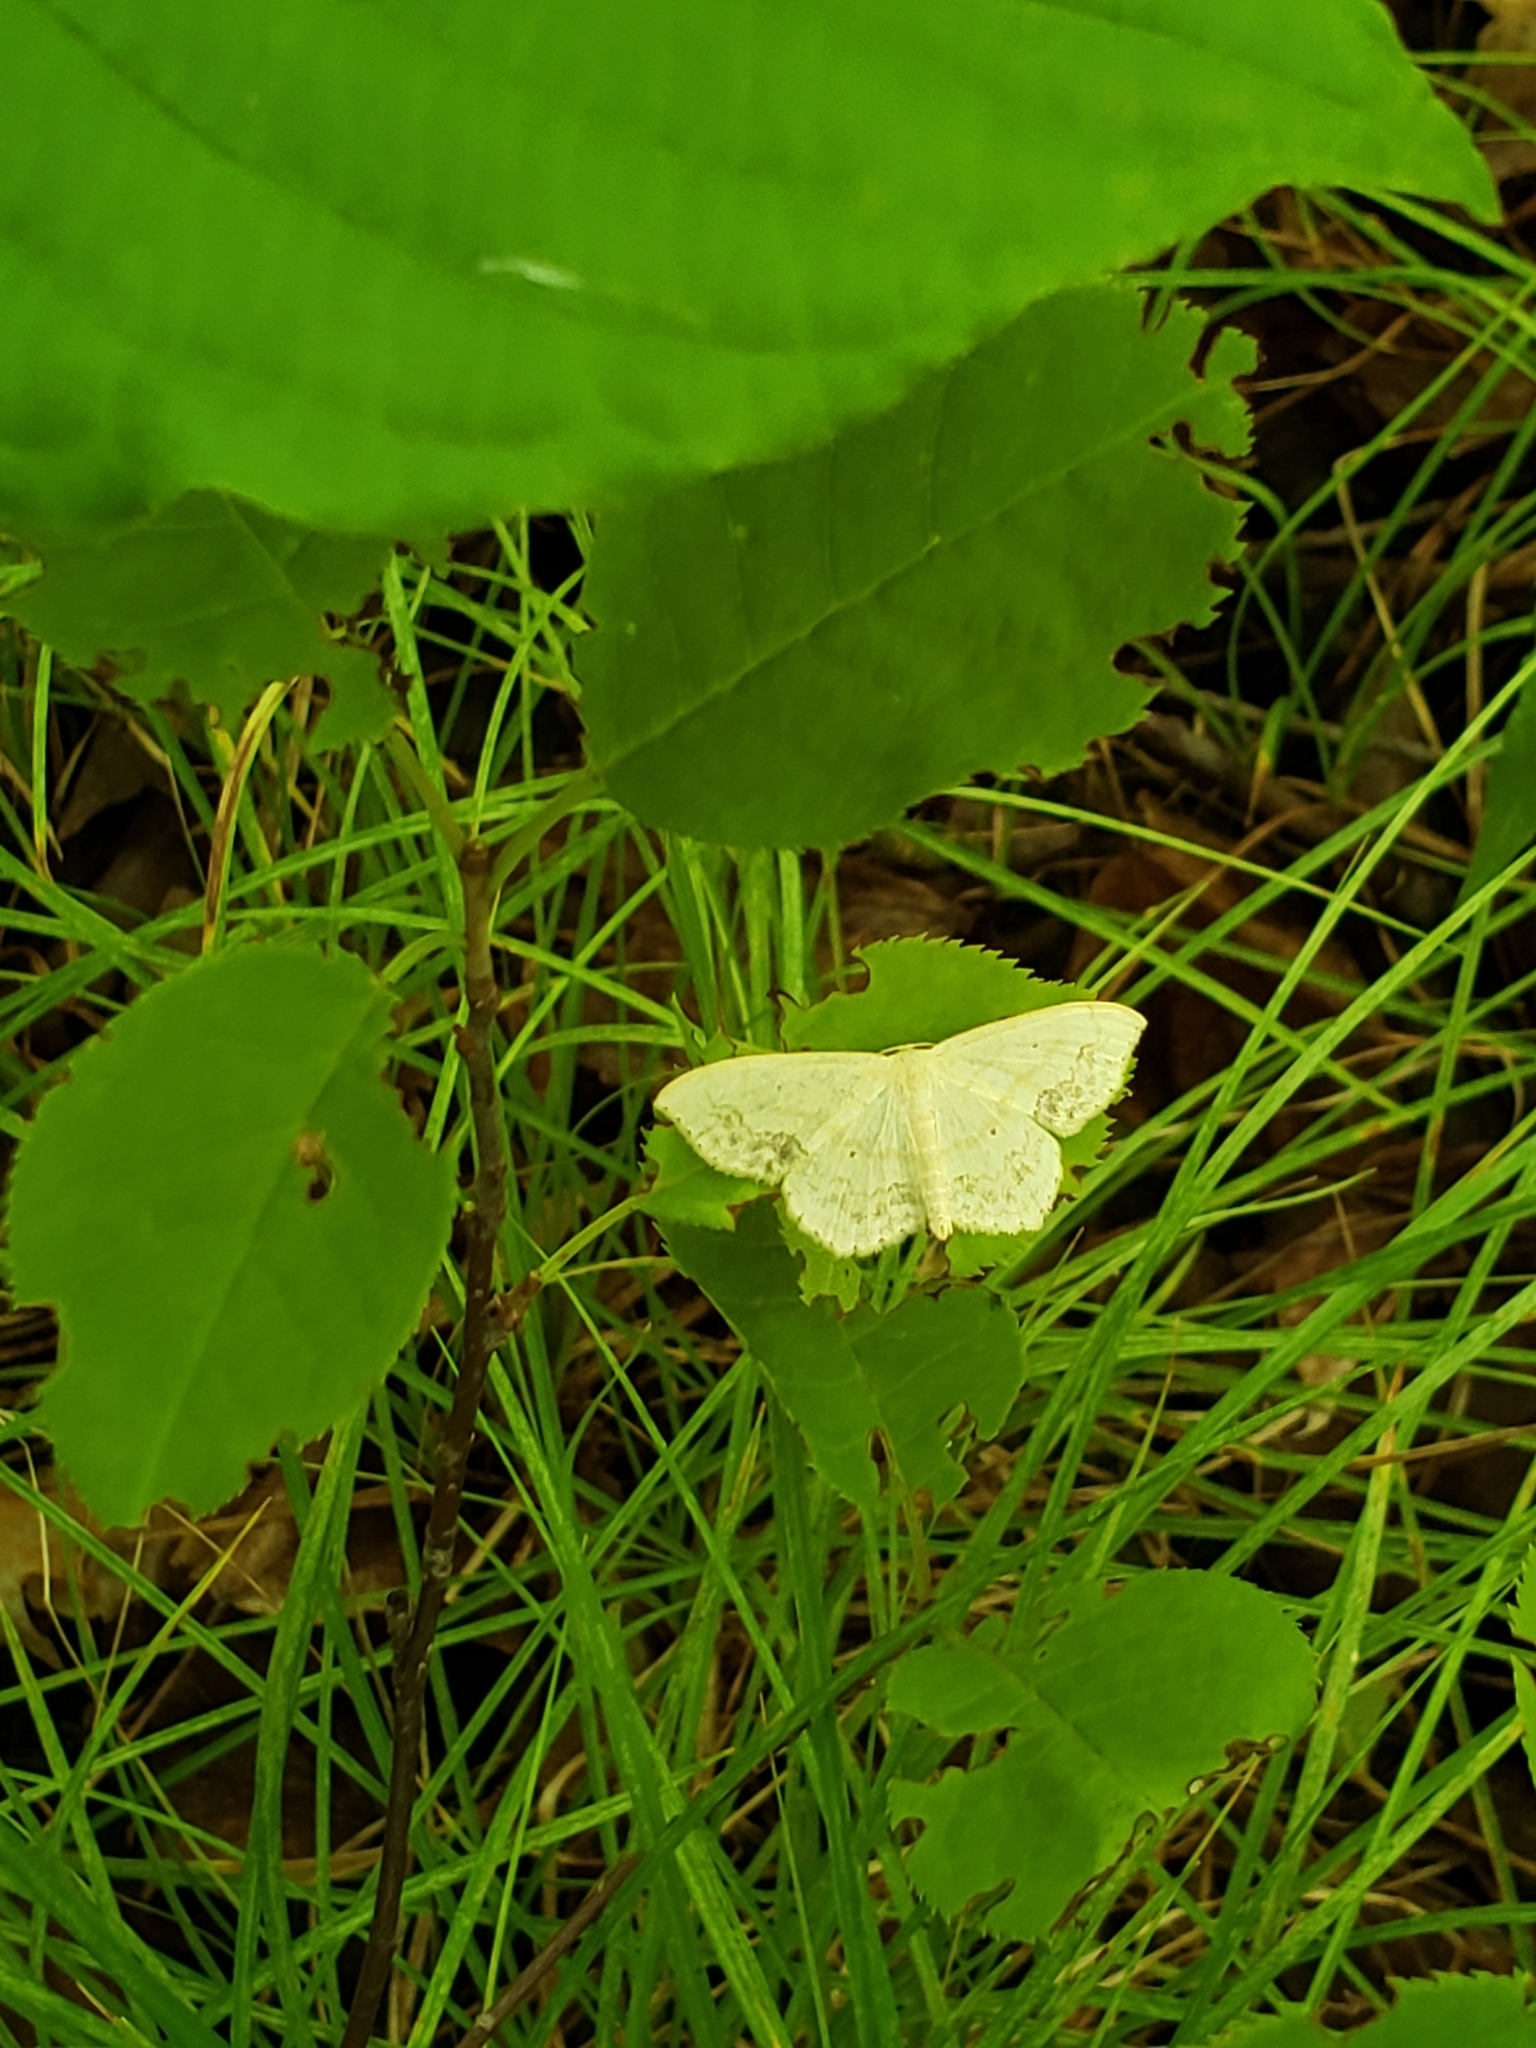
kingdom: Animalia
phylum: Arthropoda
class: Insecta
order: Lepidoptera
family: Geometridae
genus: Scopula
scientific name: Scopula limboundata
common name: Large lace border
